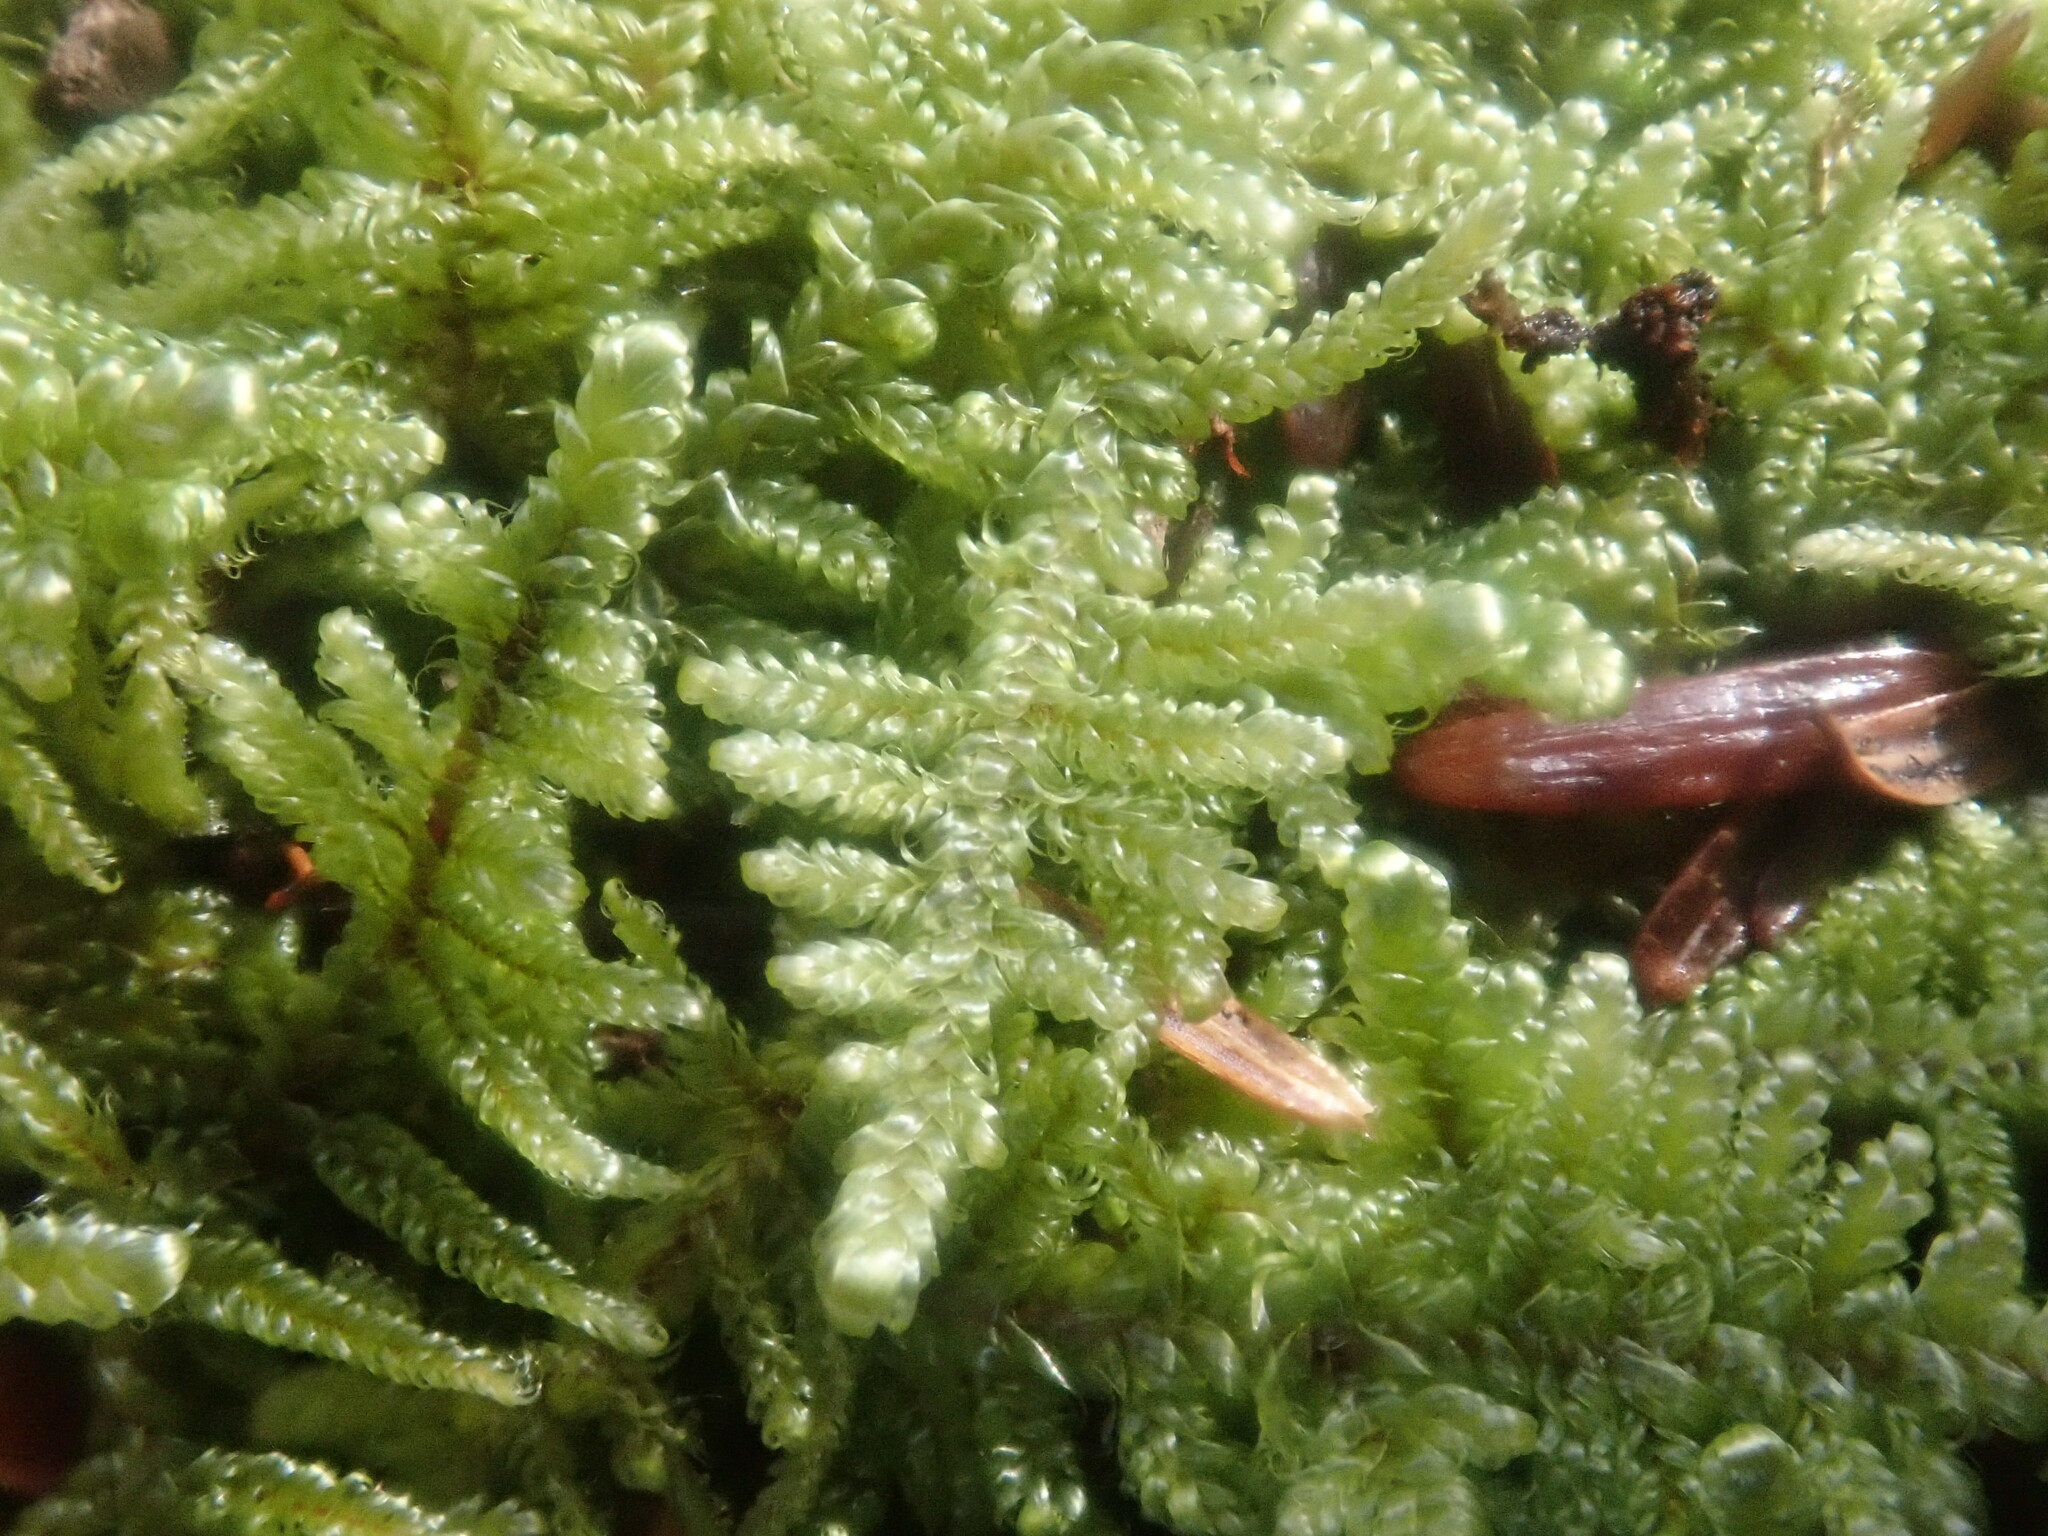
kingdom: Plantae
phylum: Bryophyta
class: Bryopsida
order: Hypnales
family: Callicladiaceae
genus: Callicladium
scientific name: Callicladium imponens
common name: Brocade moss
